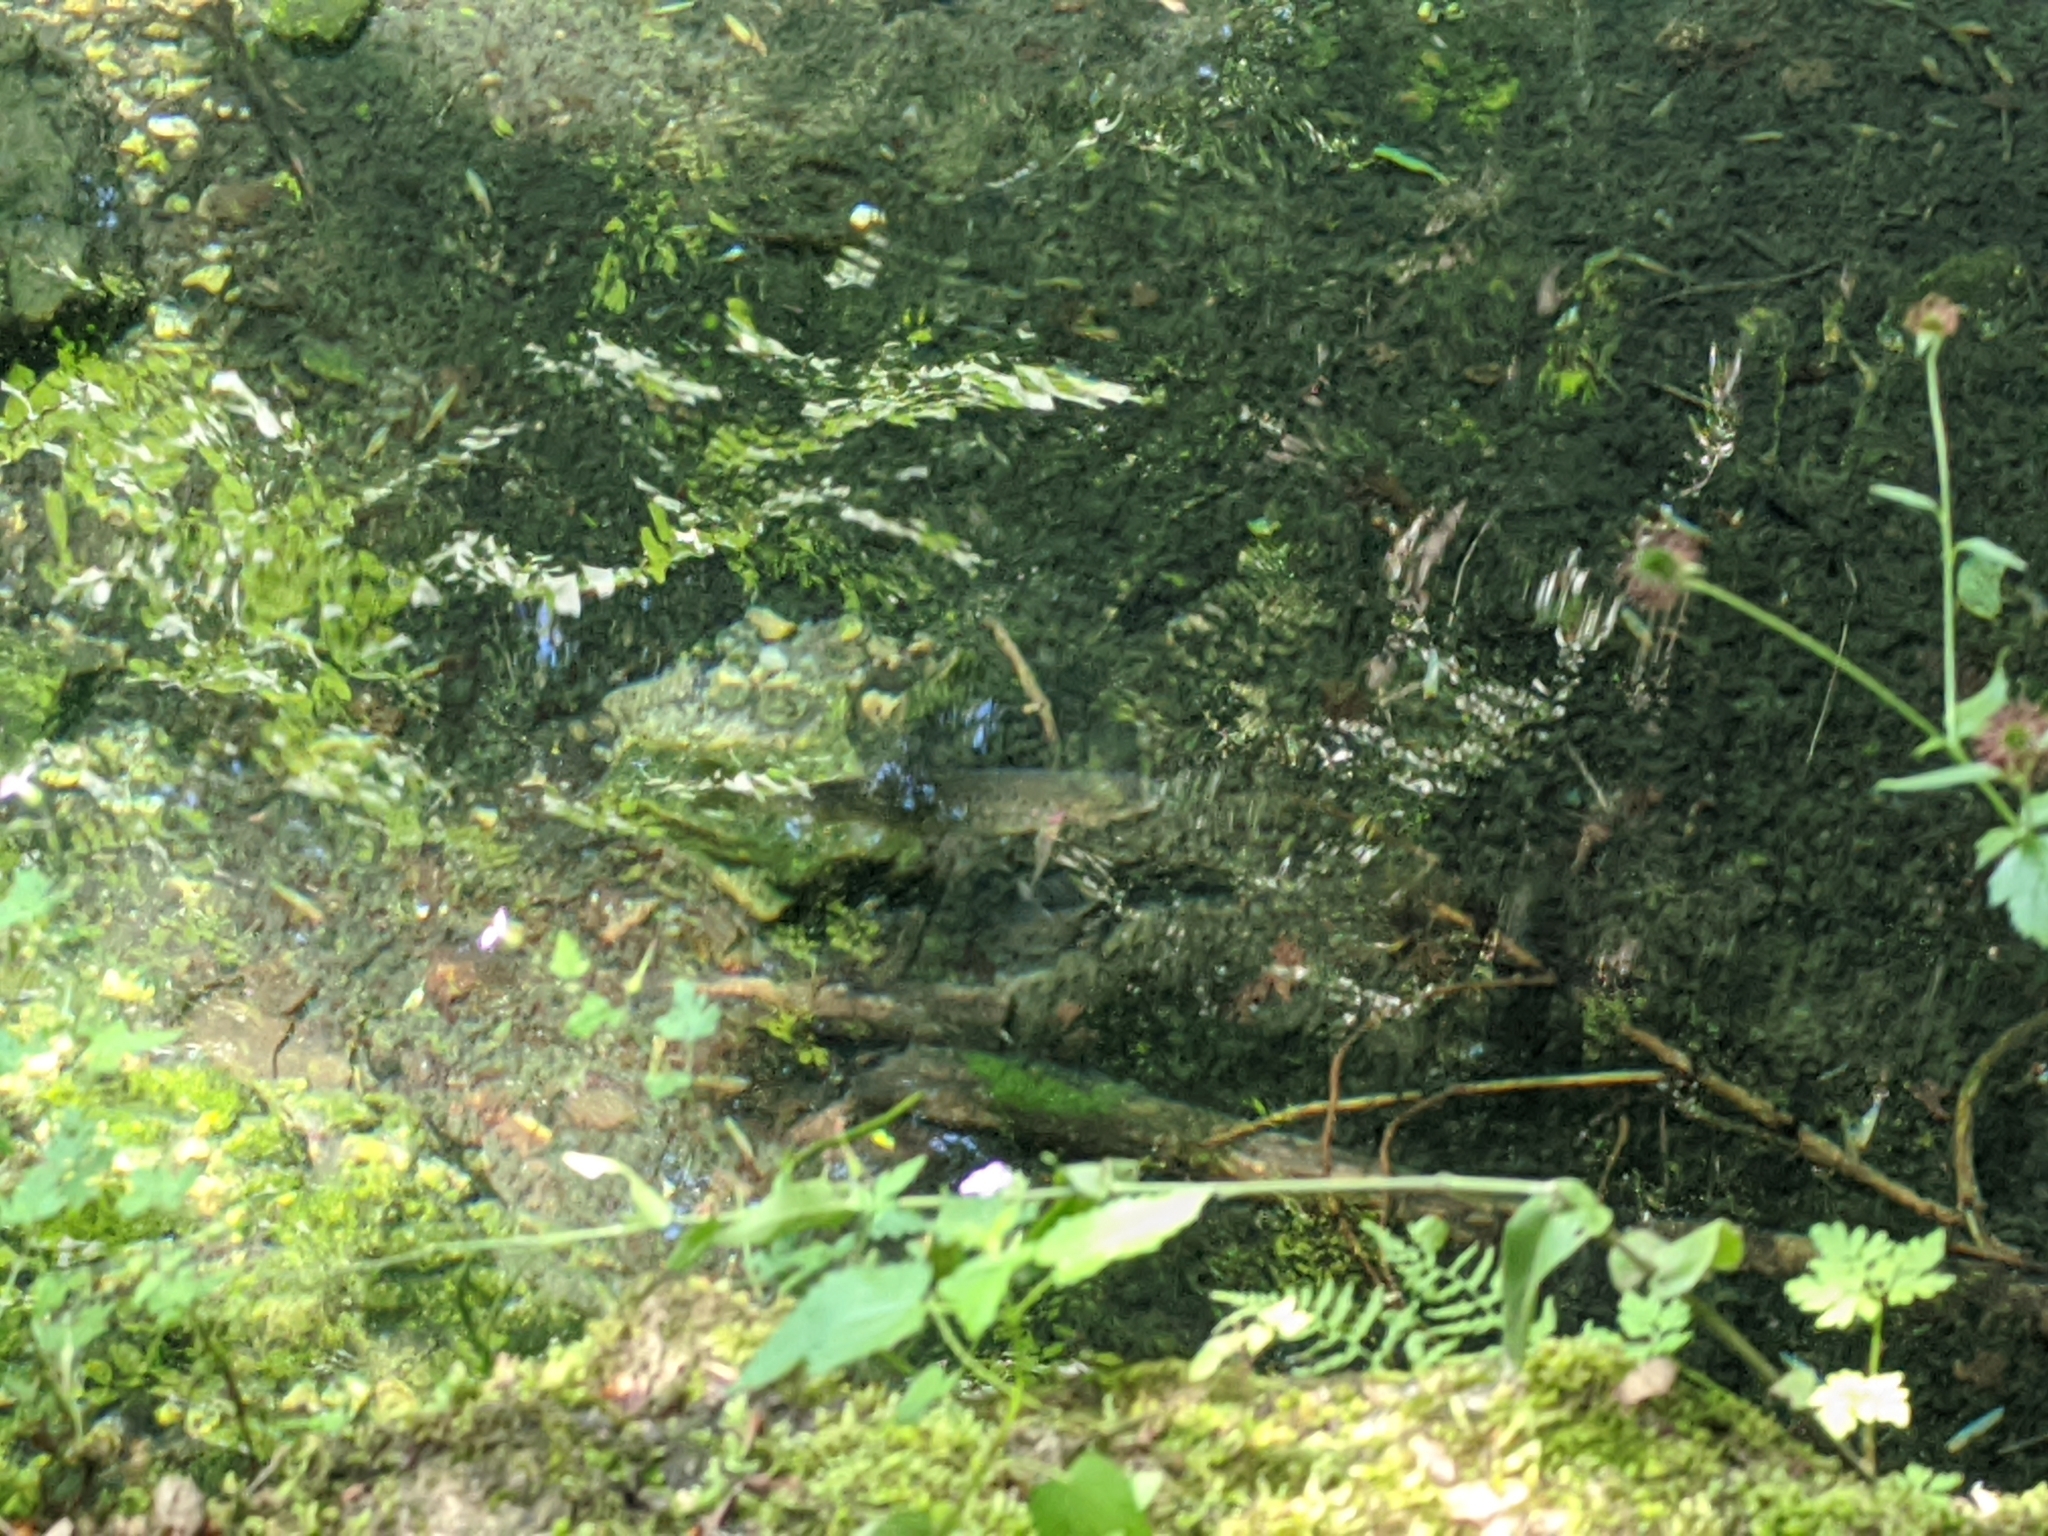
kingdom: Animalia
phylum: Chordata
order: Salmoniformes
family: Salmonidae
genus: Salmo
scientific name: Salmo trutta
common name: Brown trout
